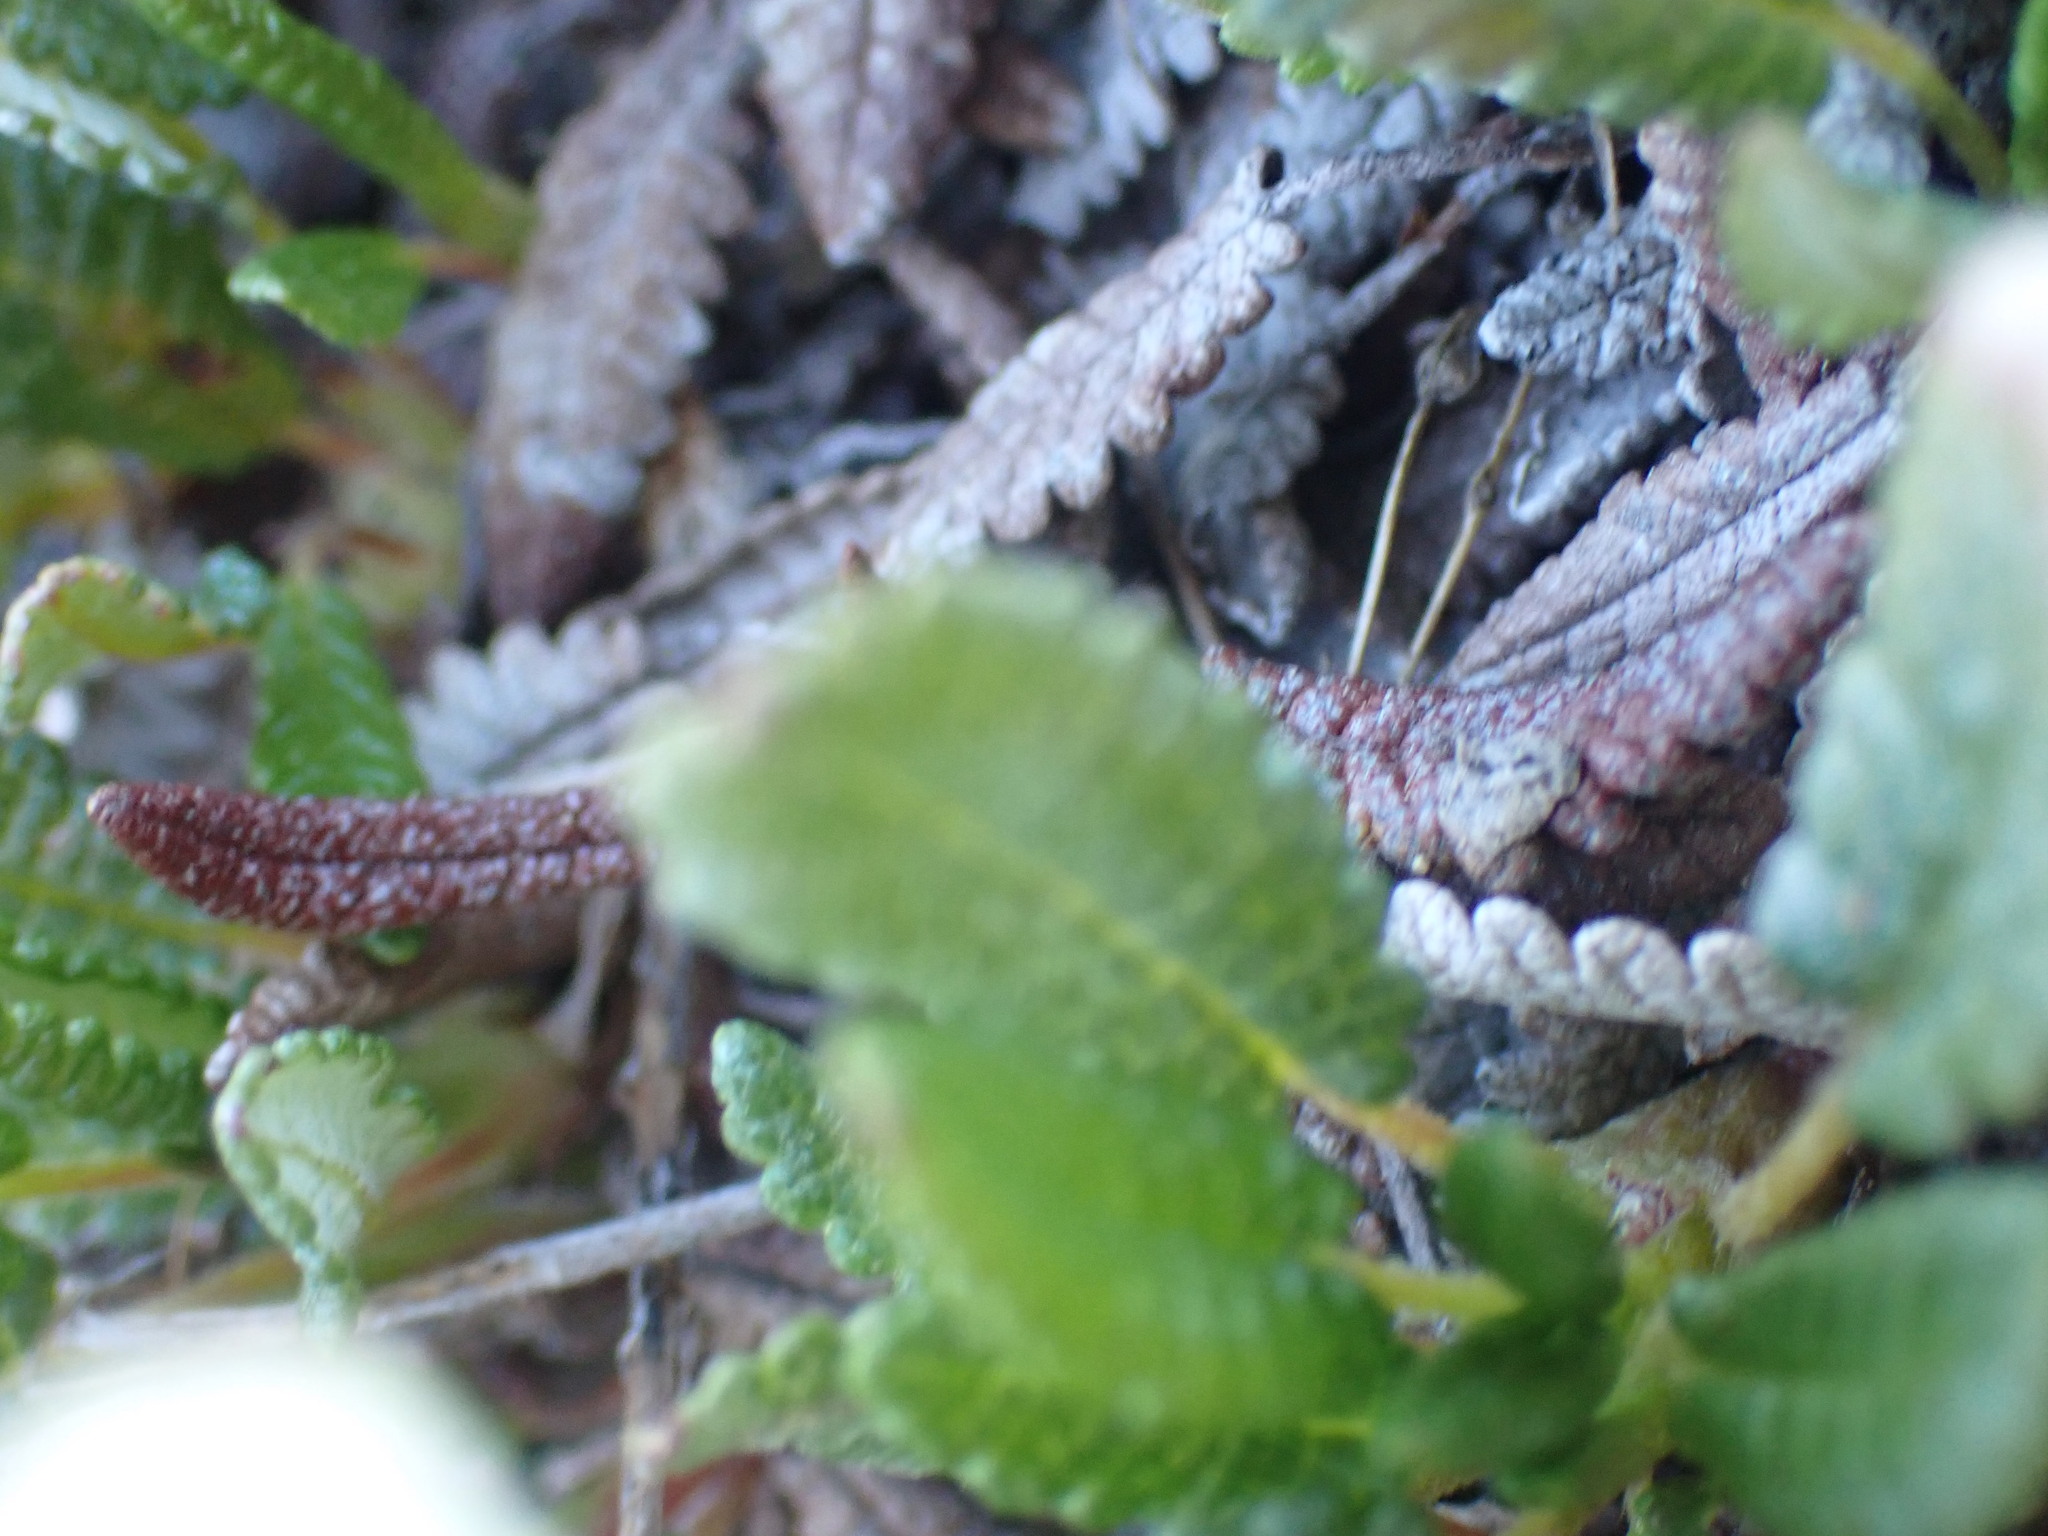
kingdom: Plantae
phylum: Tracheophyta
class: Magnoliopsida
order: Rosales
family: Rosaceae
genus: Dryas
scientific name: Dryas octopetala
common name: Eight-petal mountain-avens
